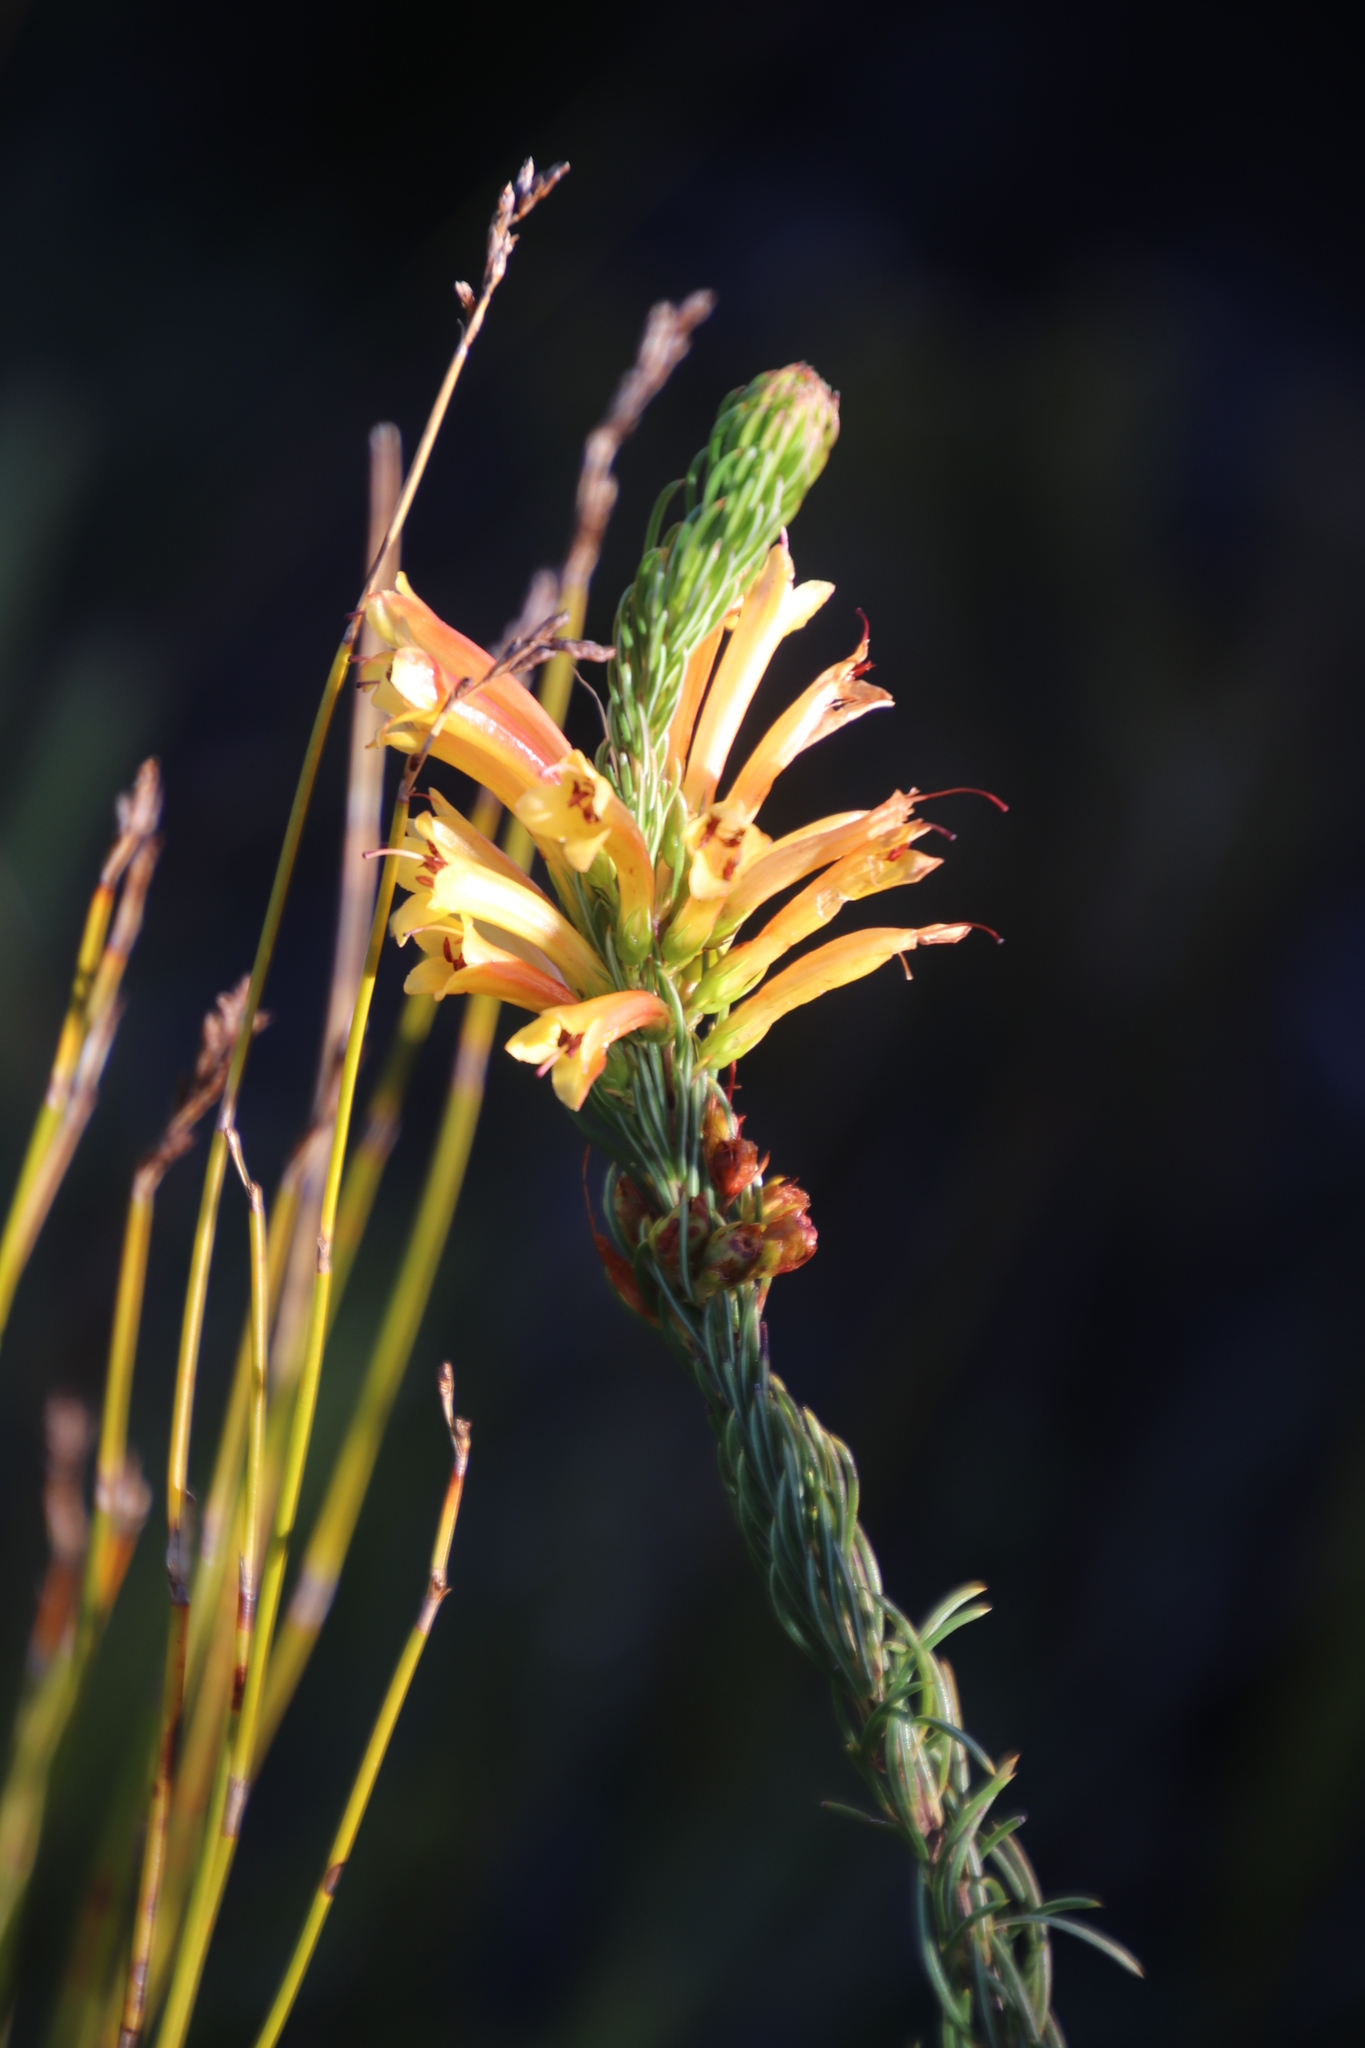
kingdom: Plantae
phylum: Tracheophyta
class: Magnoliopsida
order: Ericales
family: Ericaceae
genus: Erica
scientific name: Erica grandiflora
